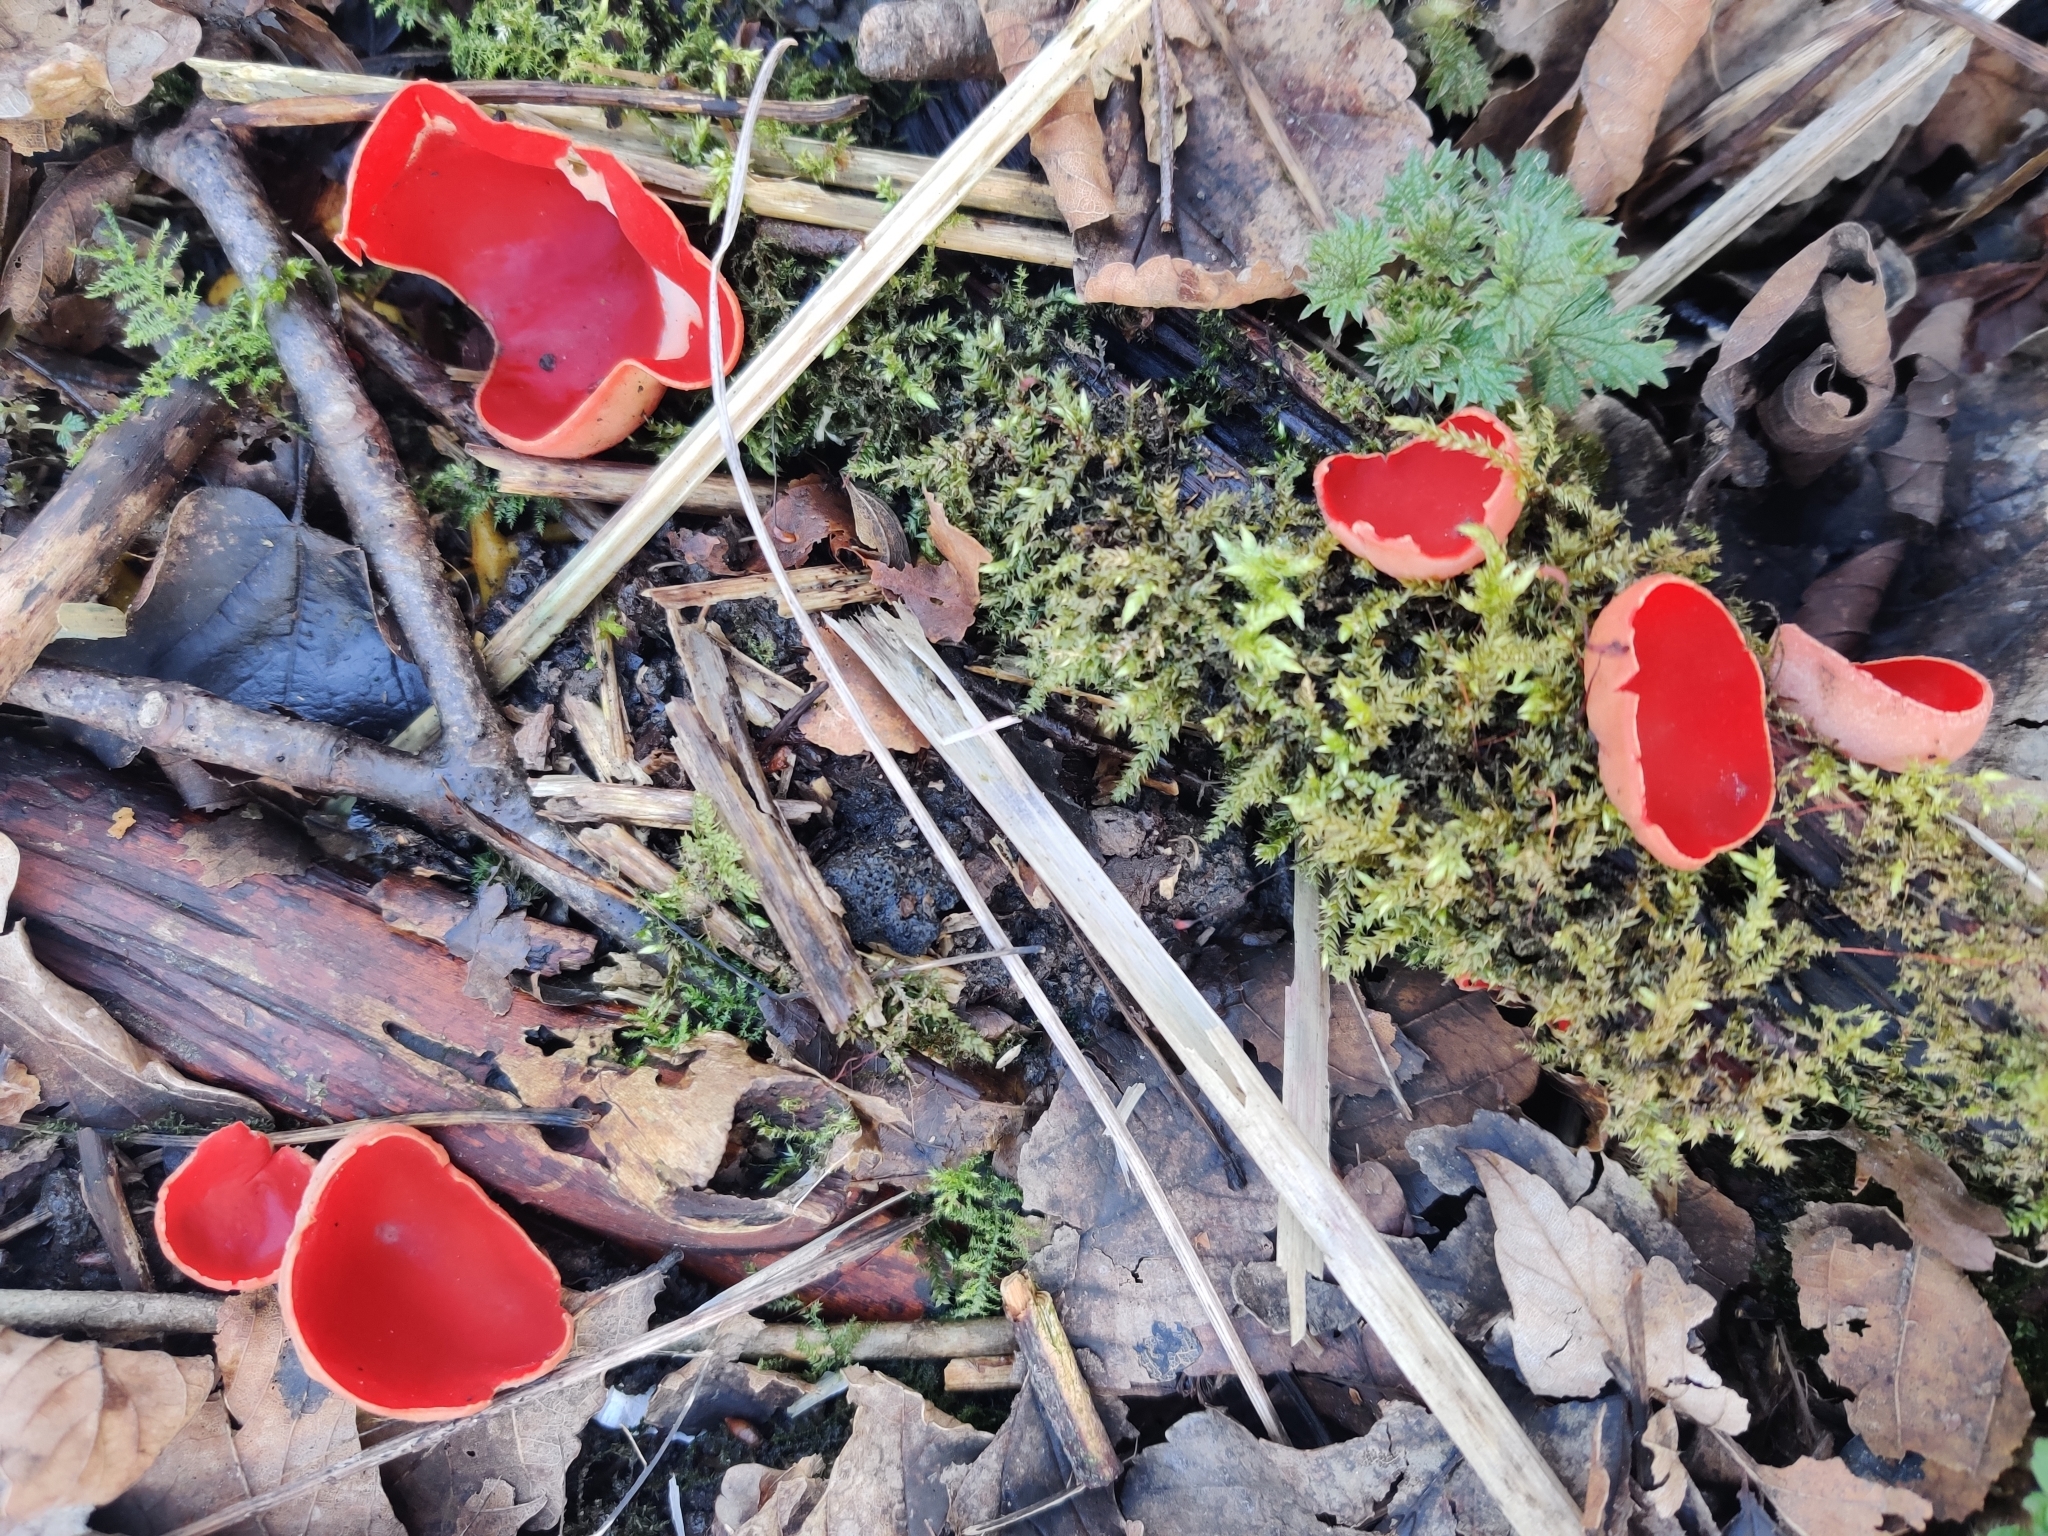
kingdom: Fungi
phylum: Ascomycota
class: Pezizomycetes
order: Pezizales
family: Sarcoscyphaceae
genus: Sarcoscypha
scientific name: Sarcoscypha
